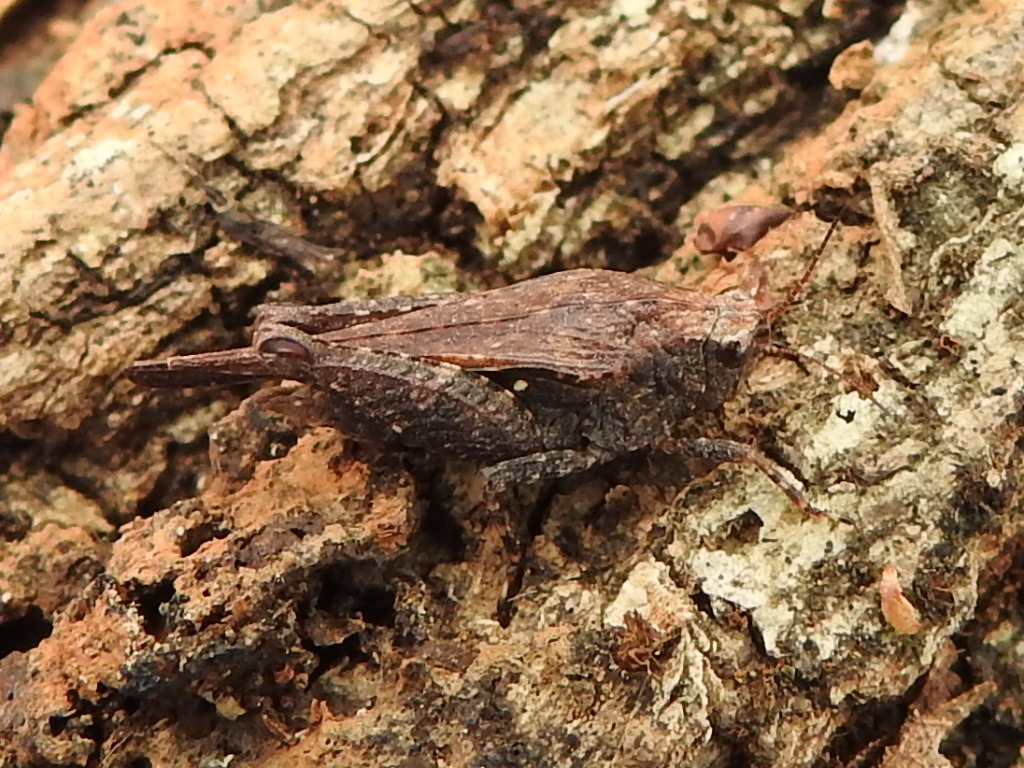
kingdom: Animalia
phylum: Arthropoda
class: Insecta
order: Orthoptera
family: Tetrigidae
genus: Tettigidea
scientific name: Tettigidea laterale
